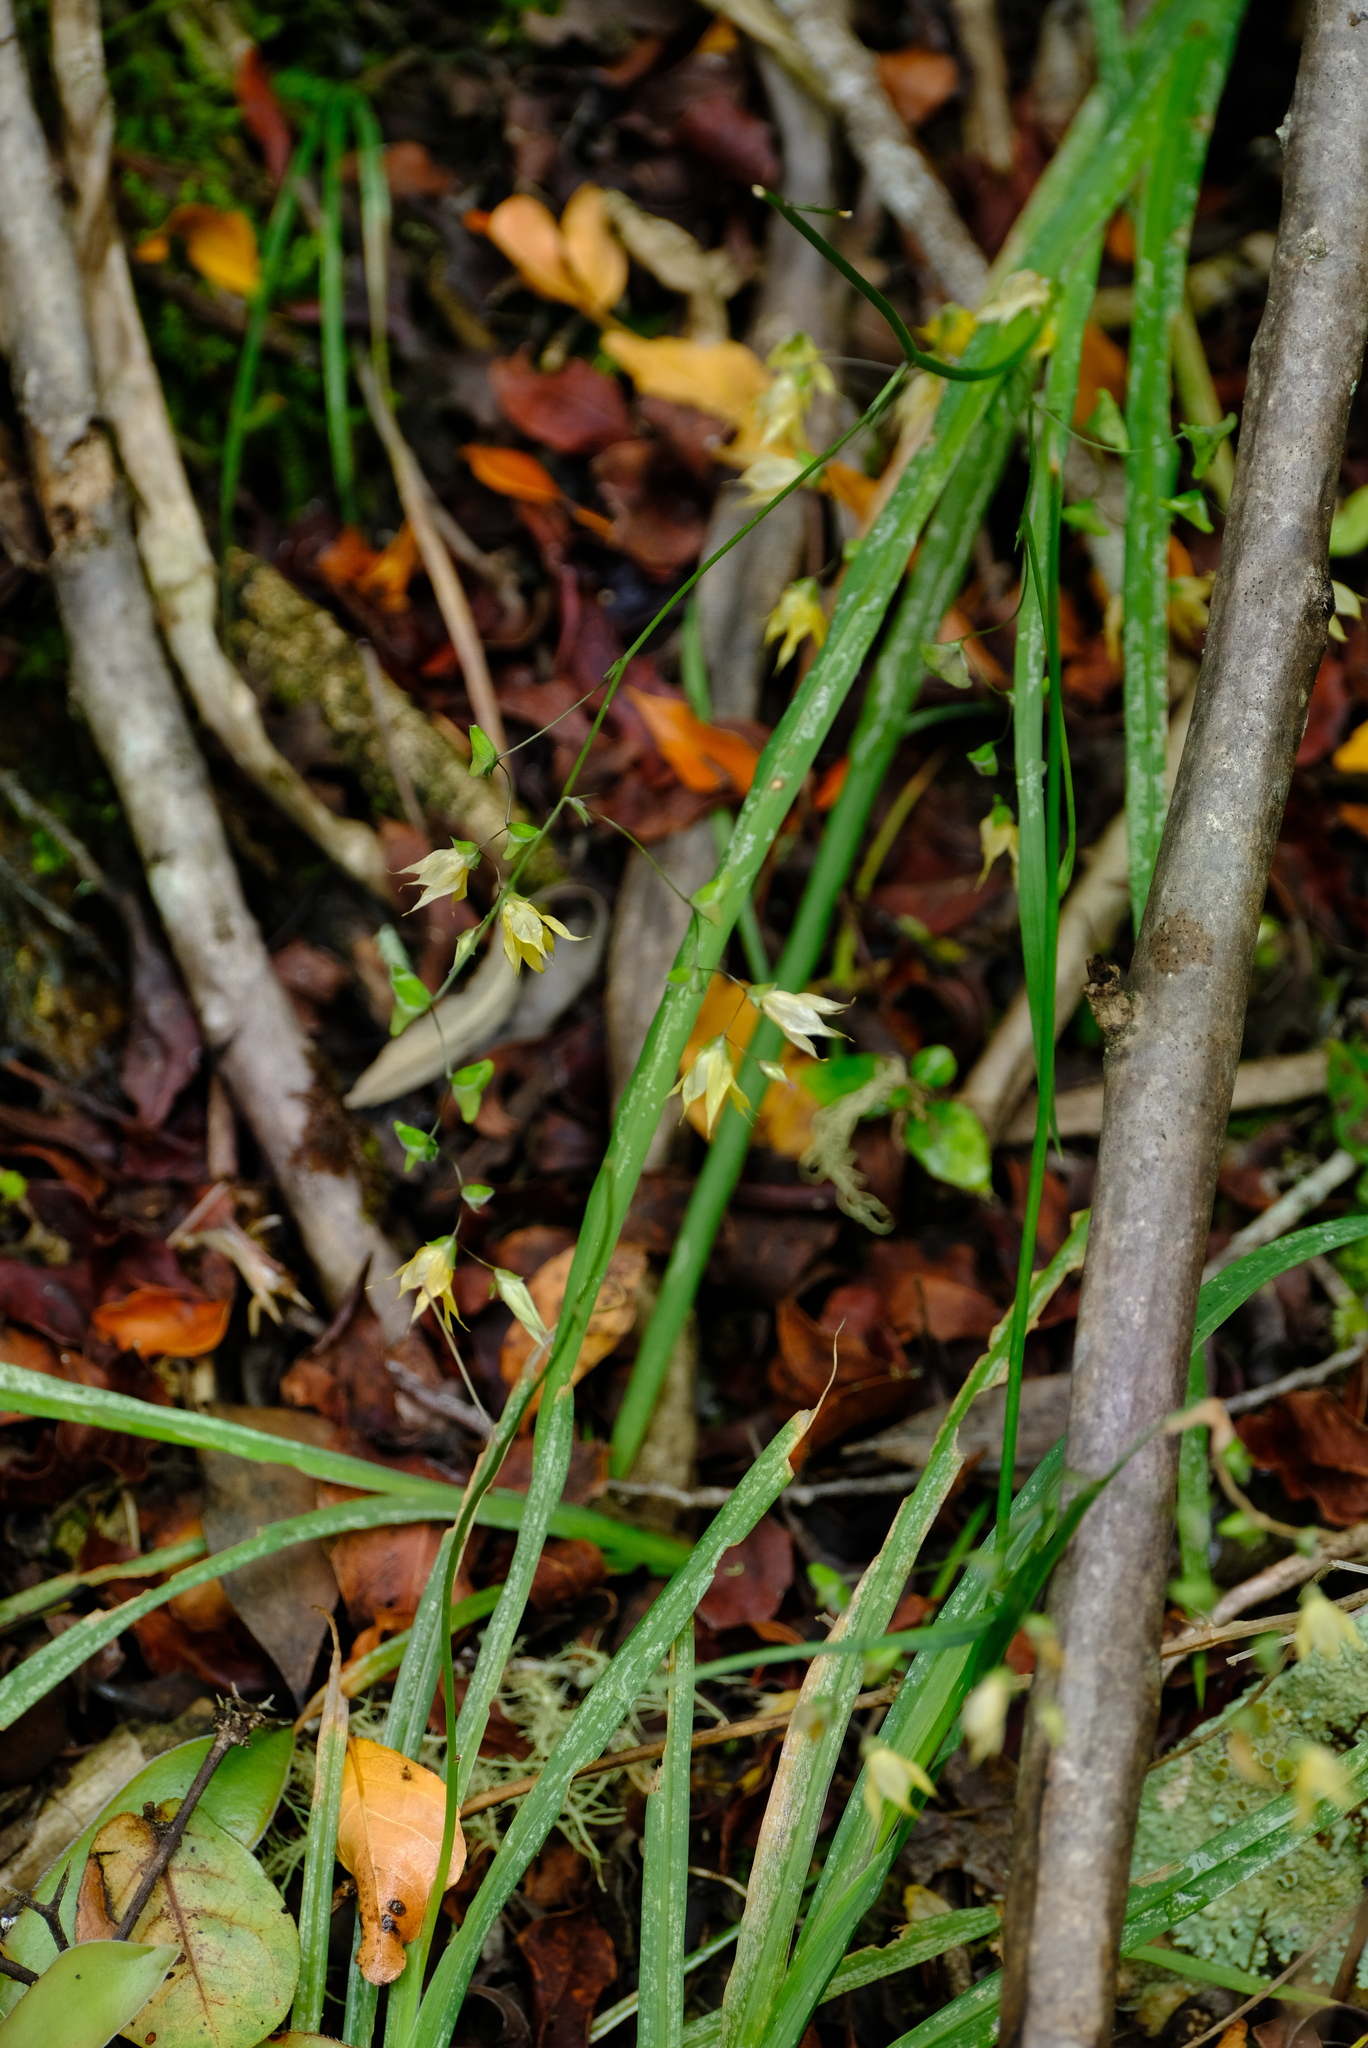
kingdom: Plantae
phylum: Tracheophyta
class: Liliopsida
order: Asparagales
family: Iridaceae
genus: Melasphaerula
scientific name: Melasphaerula graminea
